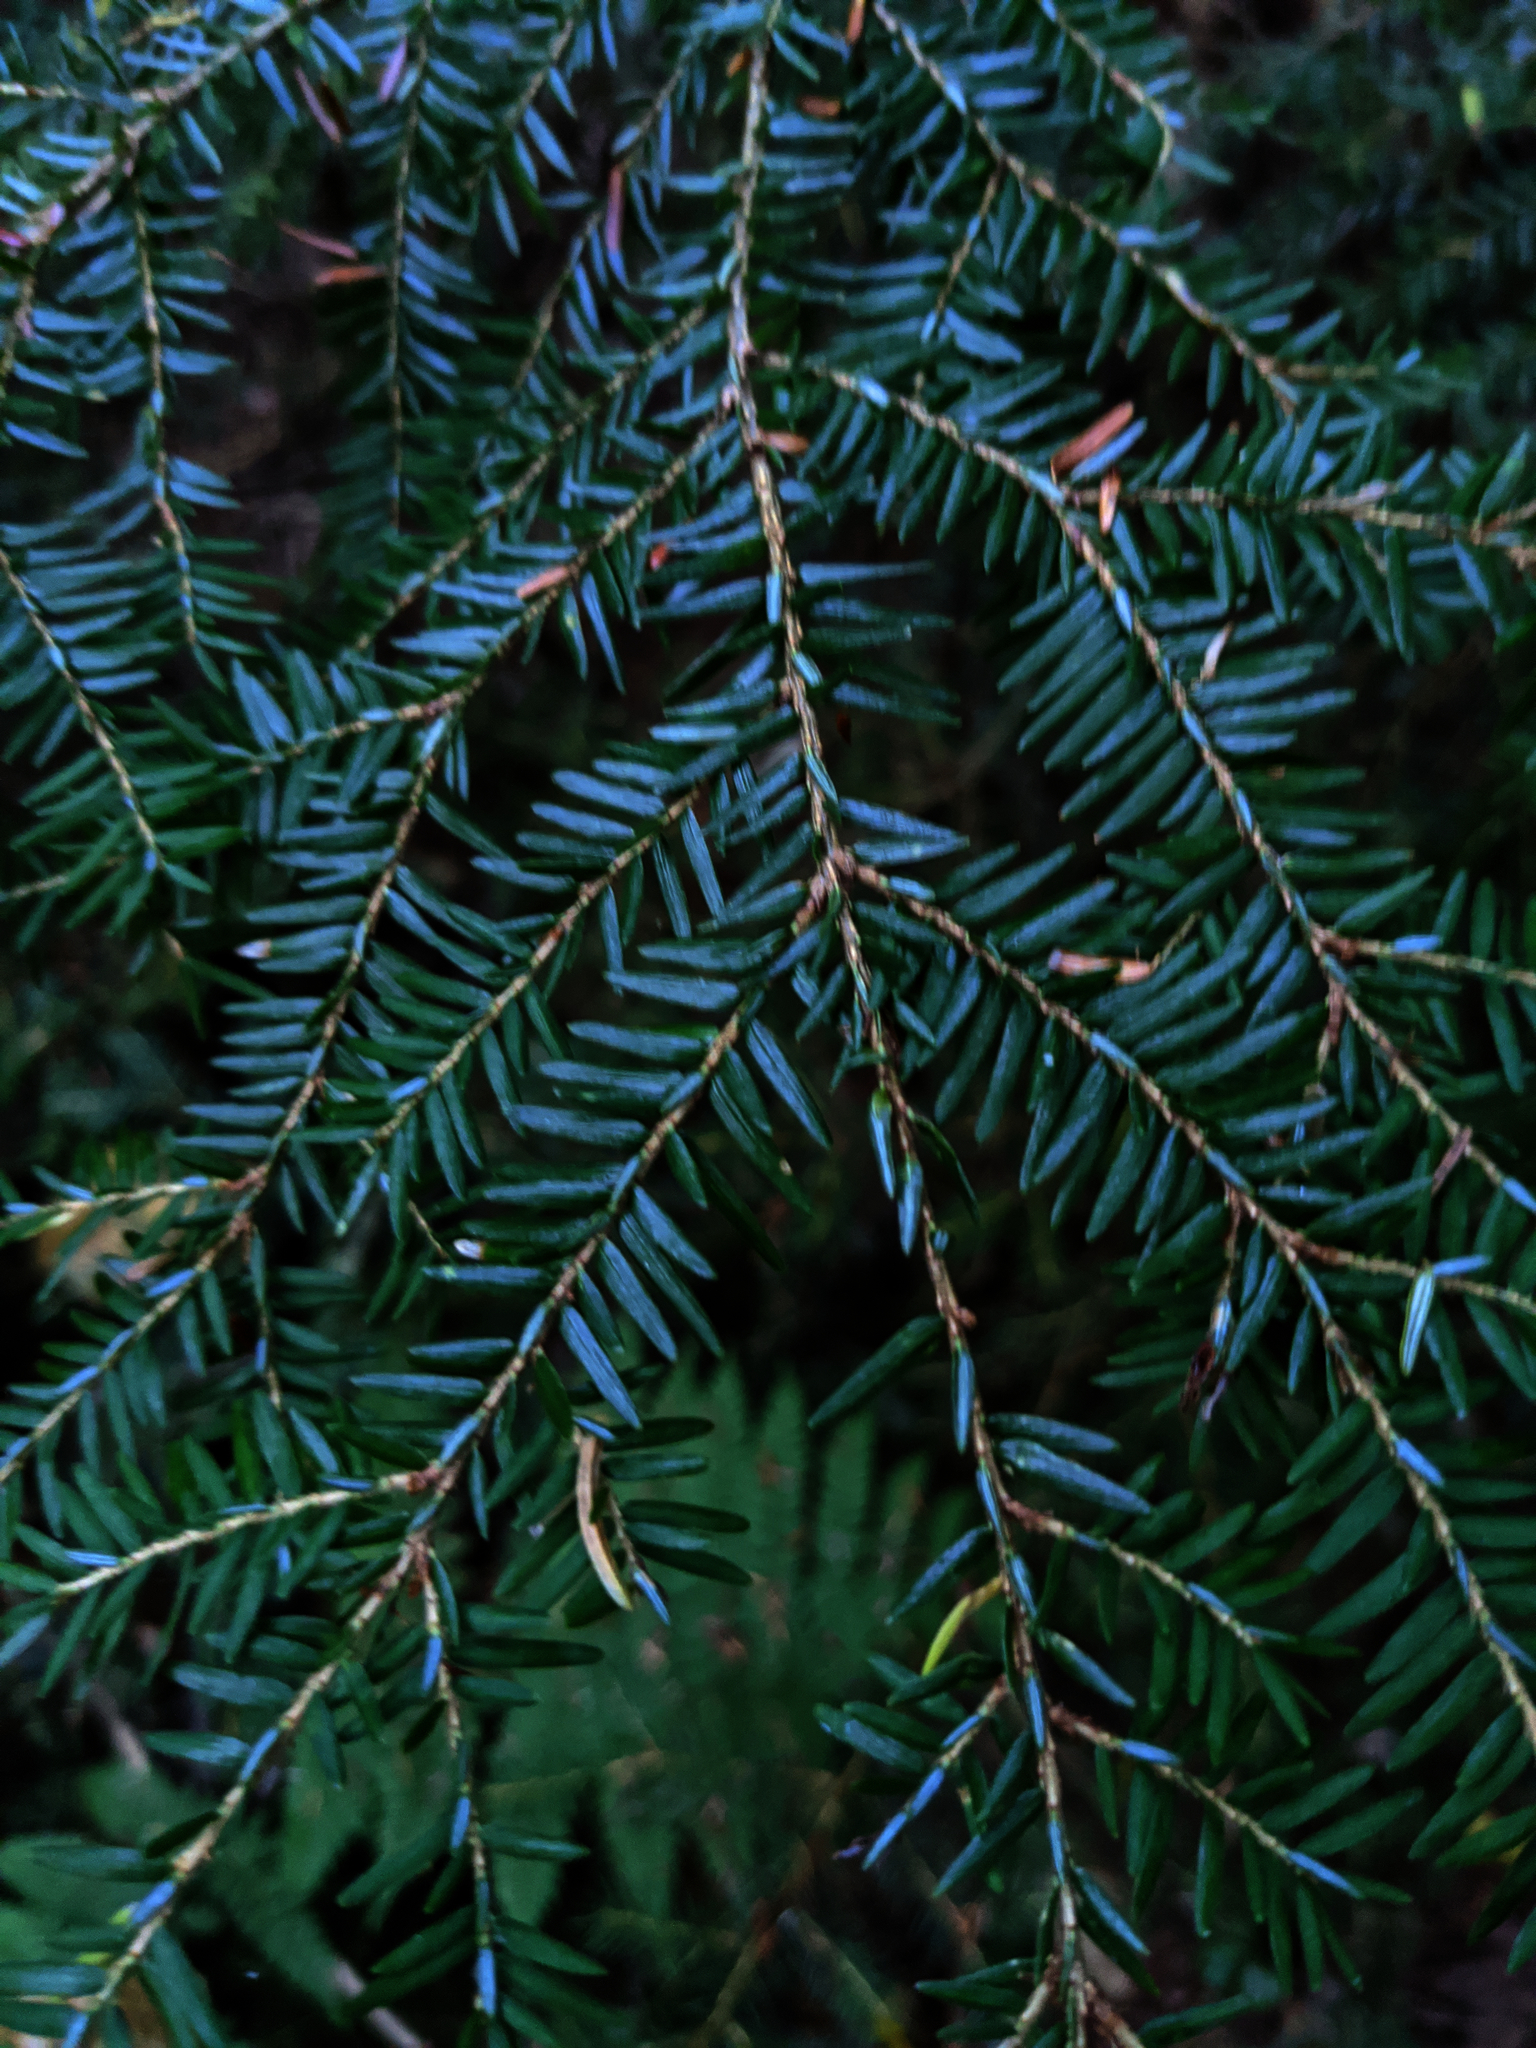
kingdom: Plantae
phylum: Tracheophyta
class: Pinopsida
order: Pinales
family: Pinaceae
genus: Tsuga
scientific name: Tsuga canadensis
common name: Eastern hemlock
